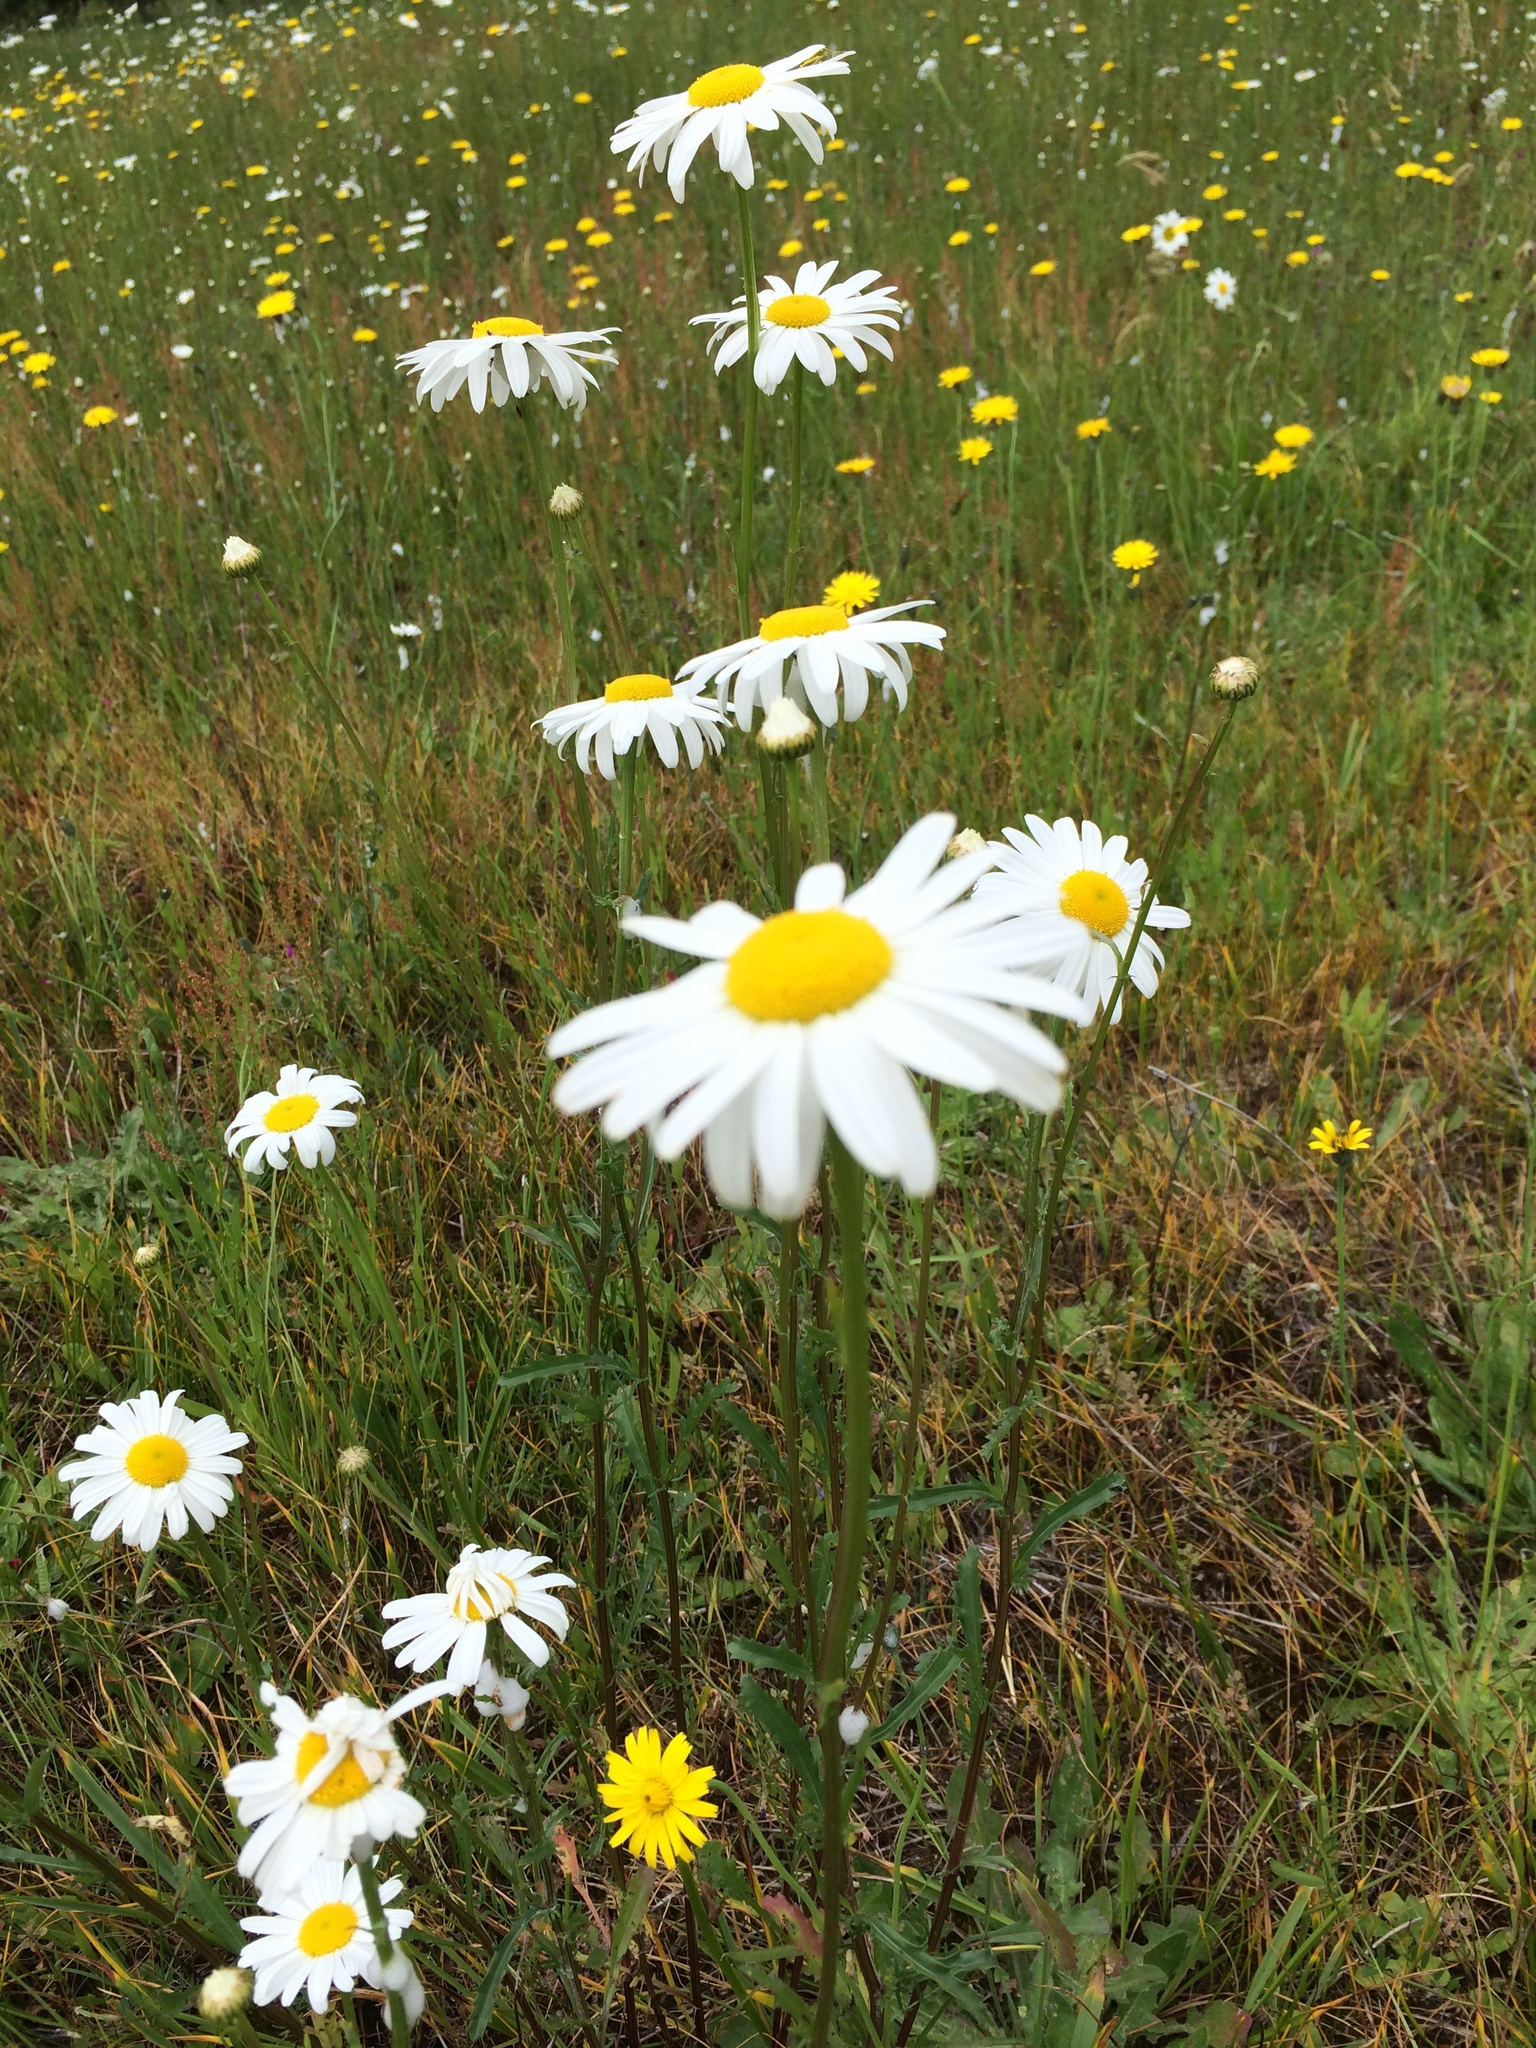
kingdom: Plantae
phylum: Tracheophyta
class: Magnoliopsida
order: Asterales
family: Asteraceae
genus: Leucanthemum
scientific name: Leucanthemum vulgare
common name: Oxeye daisy
